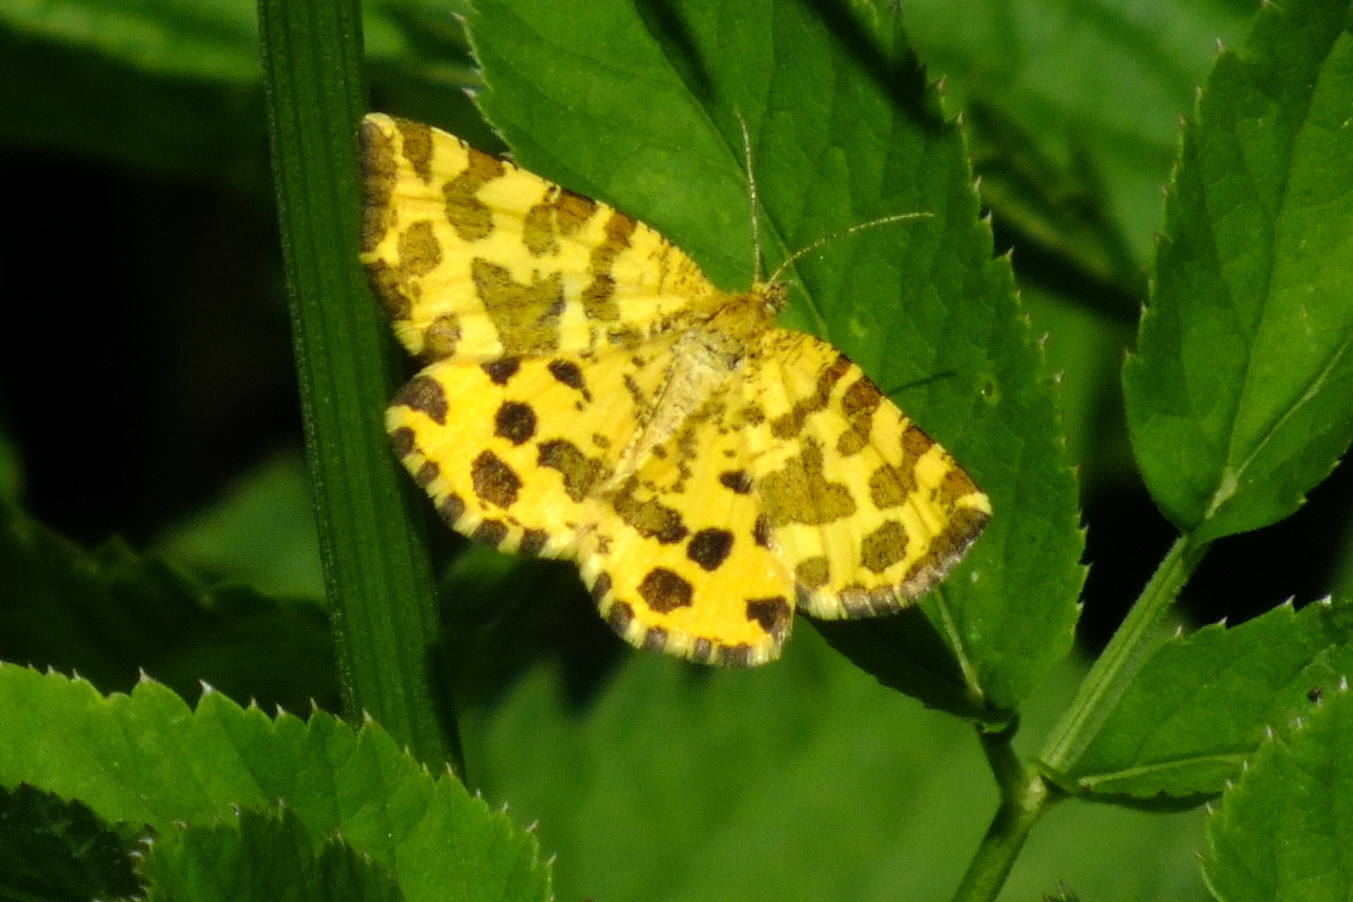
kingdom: Animalia
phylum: Arthropoda
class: Insecta
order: Lepidoptera
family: Geometridae
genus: Pseudopanthera
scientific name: Pseudopanthera macularia
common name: Speckled yellow
